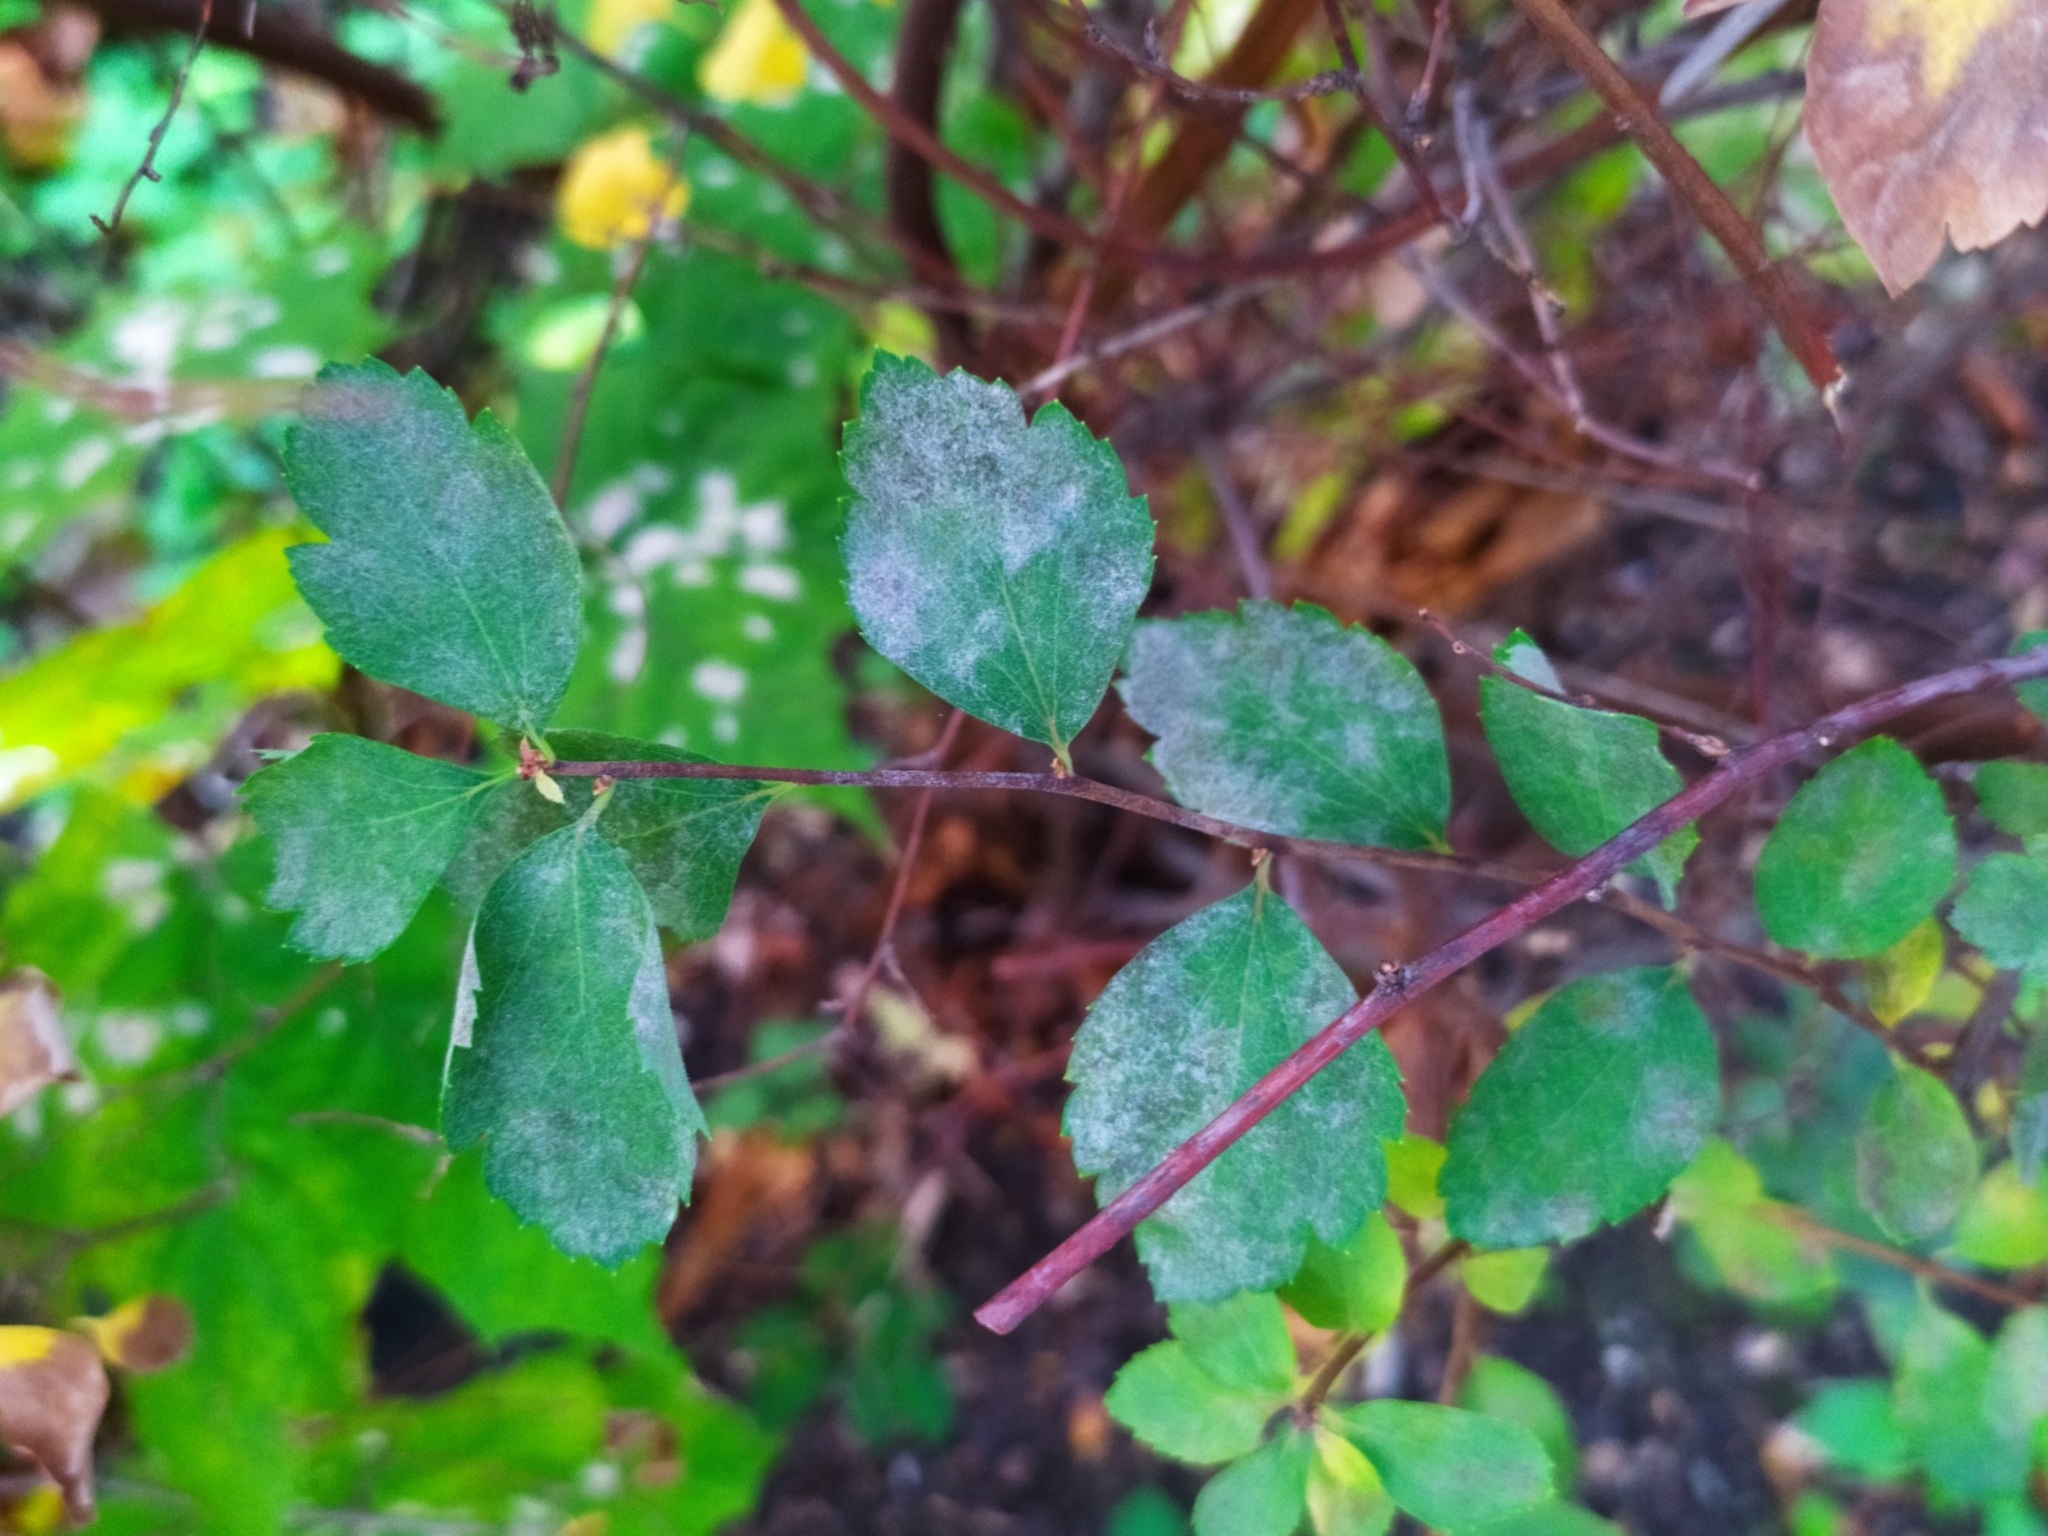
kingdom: Fungi
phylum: Ascomycota
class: Leotiomycetes
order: Helotiales
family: Erysiphaceae
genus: Podosphaera
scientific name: Podosphaera spiraeae
